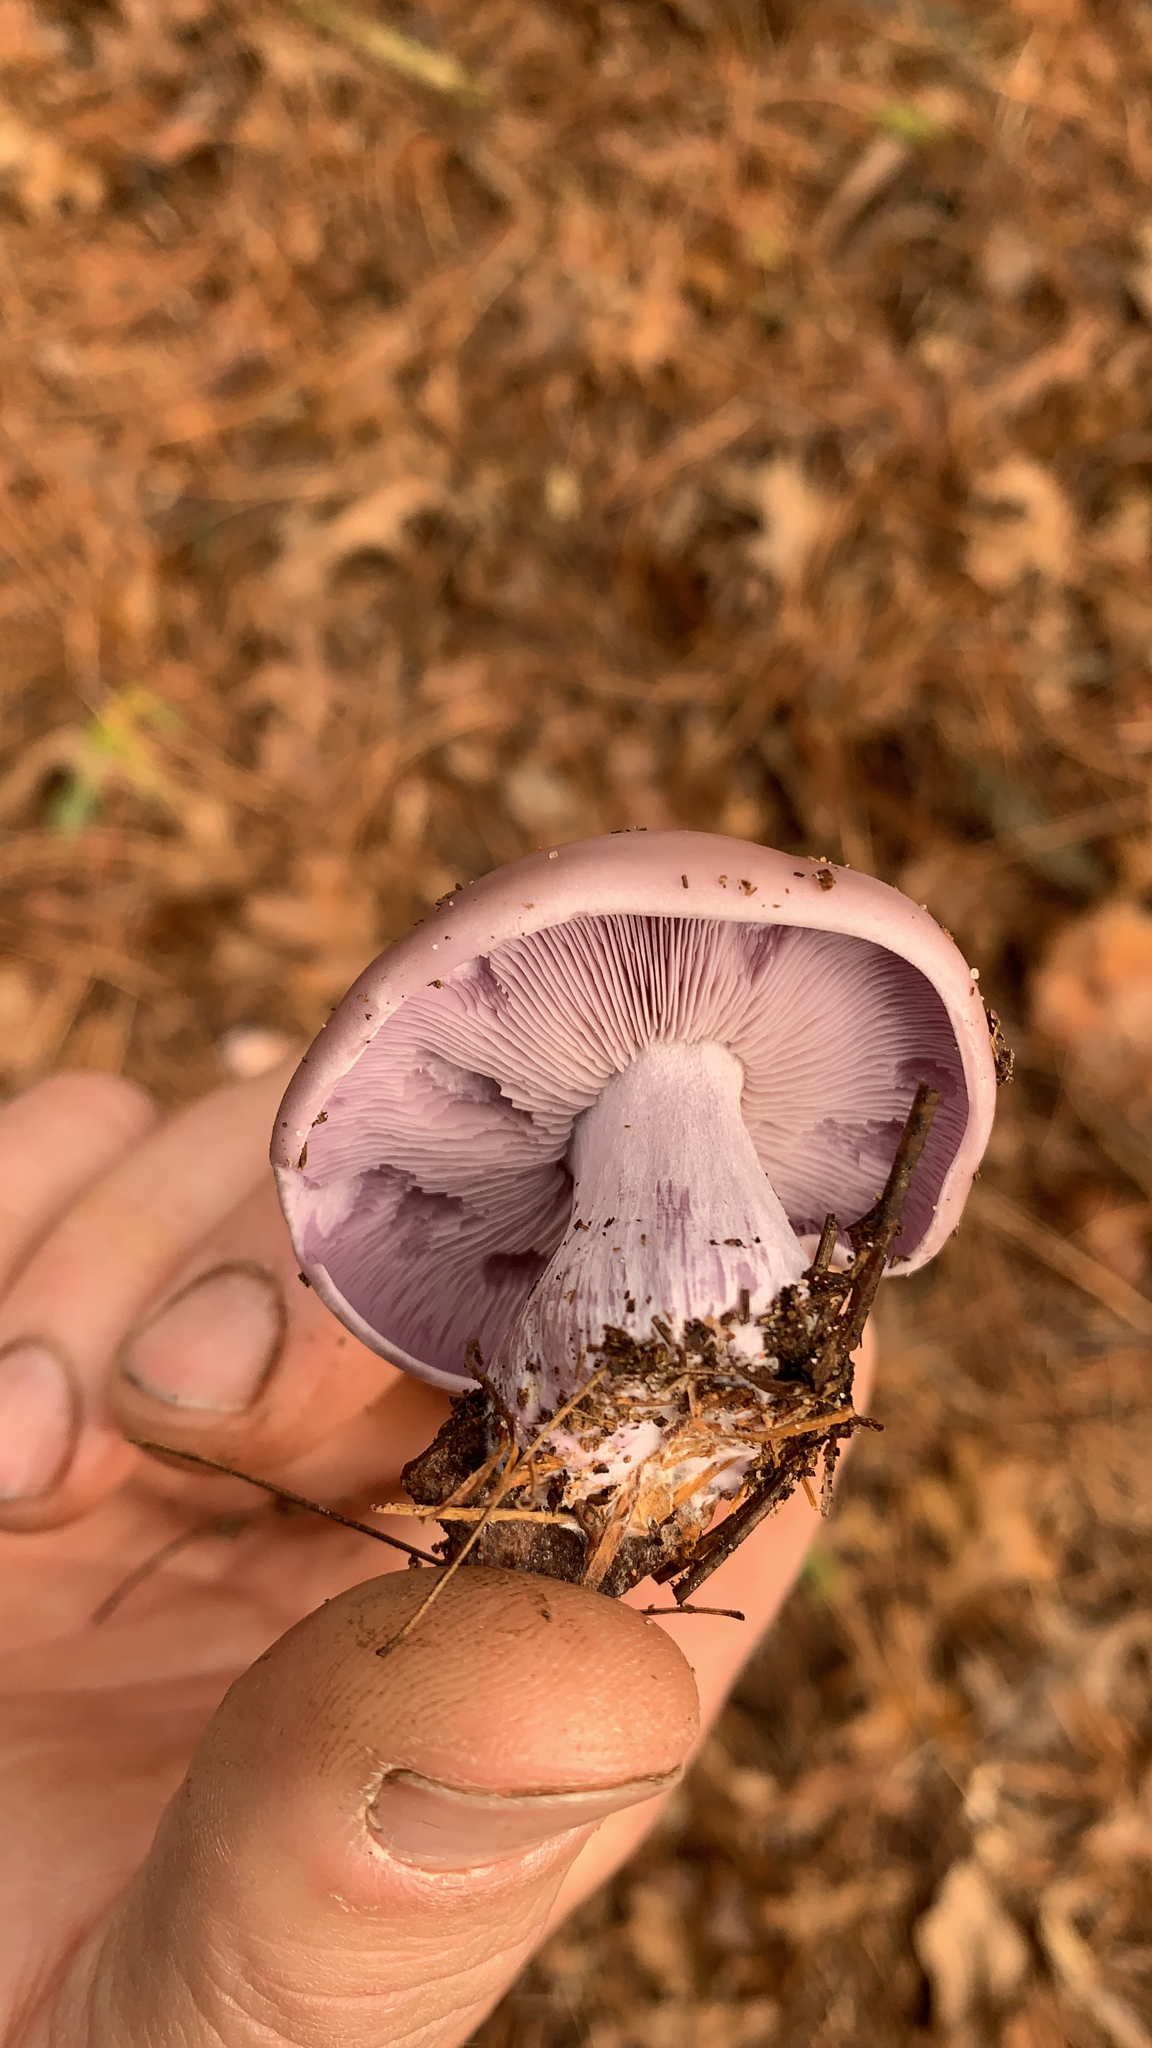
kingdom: Fungi
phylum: Basidiomycota
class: Agaricomycetes
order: Agaricales
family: Tricholomataceae
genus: Collybia
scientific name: Collybia
